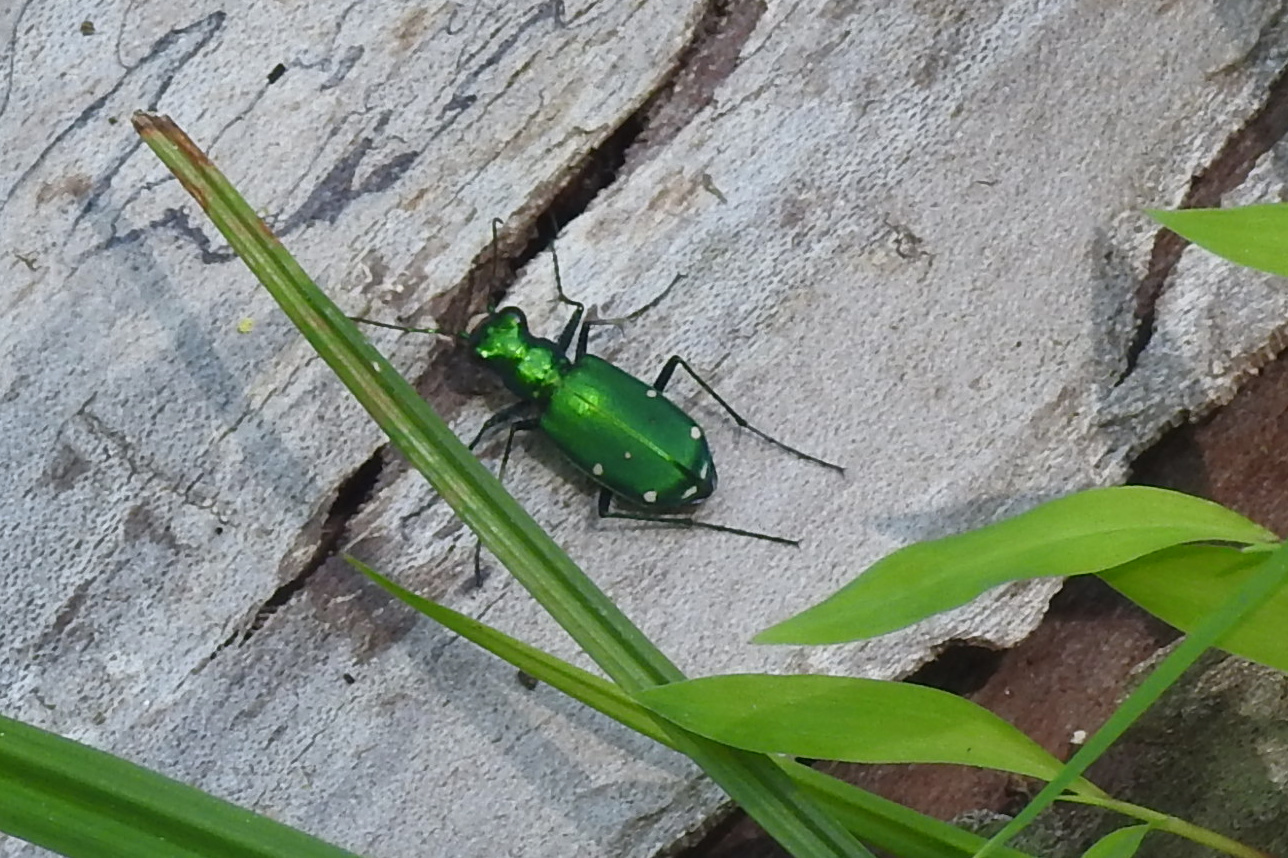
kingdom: Animalia
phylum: Arthropoda
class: Insecta
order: Coleoptera
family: Carabidae
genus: Cicindela
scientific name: Cicindela sexguttata
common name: Six-spotted tiger beetle
